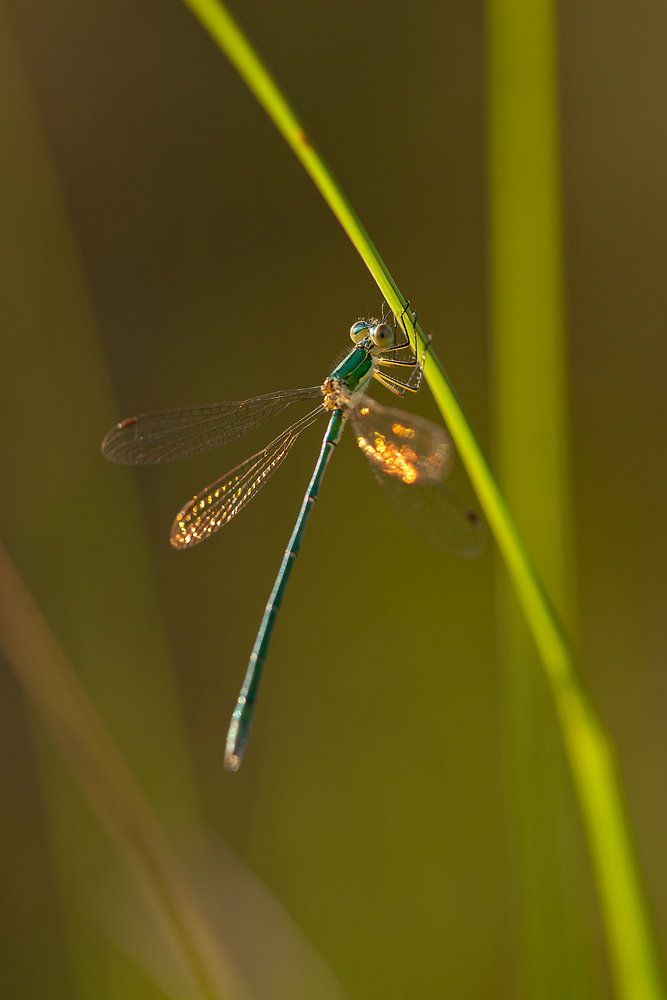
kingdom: Animalia
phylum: Arthropoda
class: Insecta
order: Odonata
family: Lestidae
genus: Lestes
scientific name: Lestes virens
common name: Small emerald spreadwing
